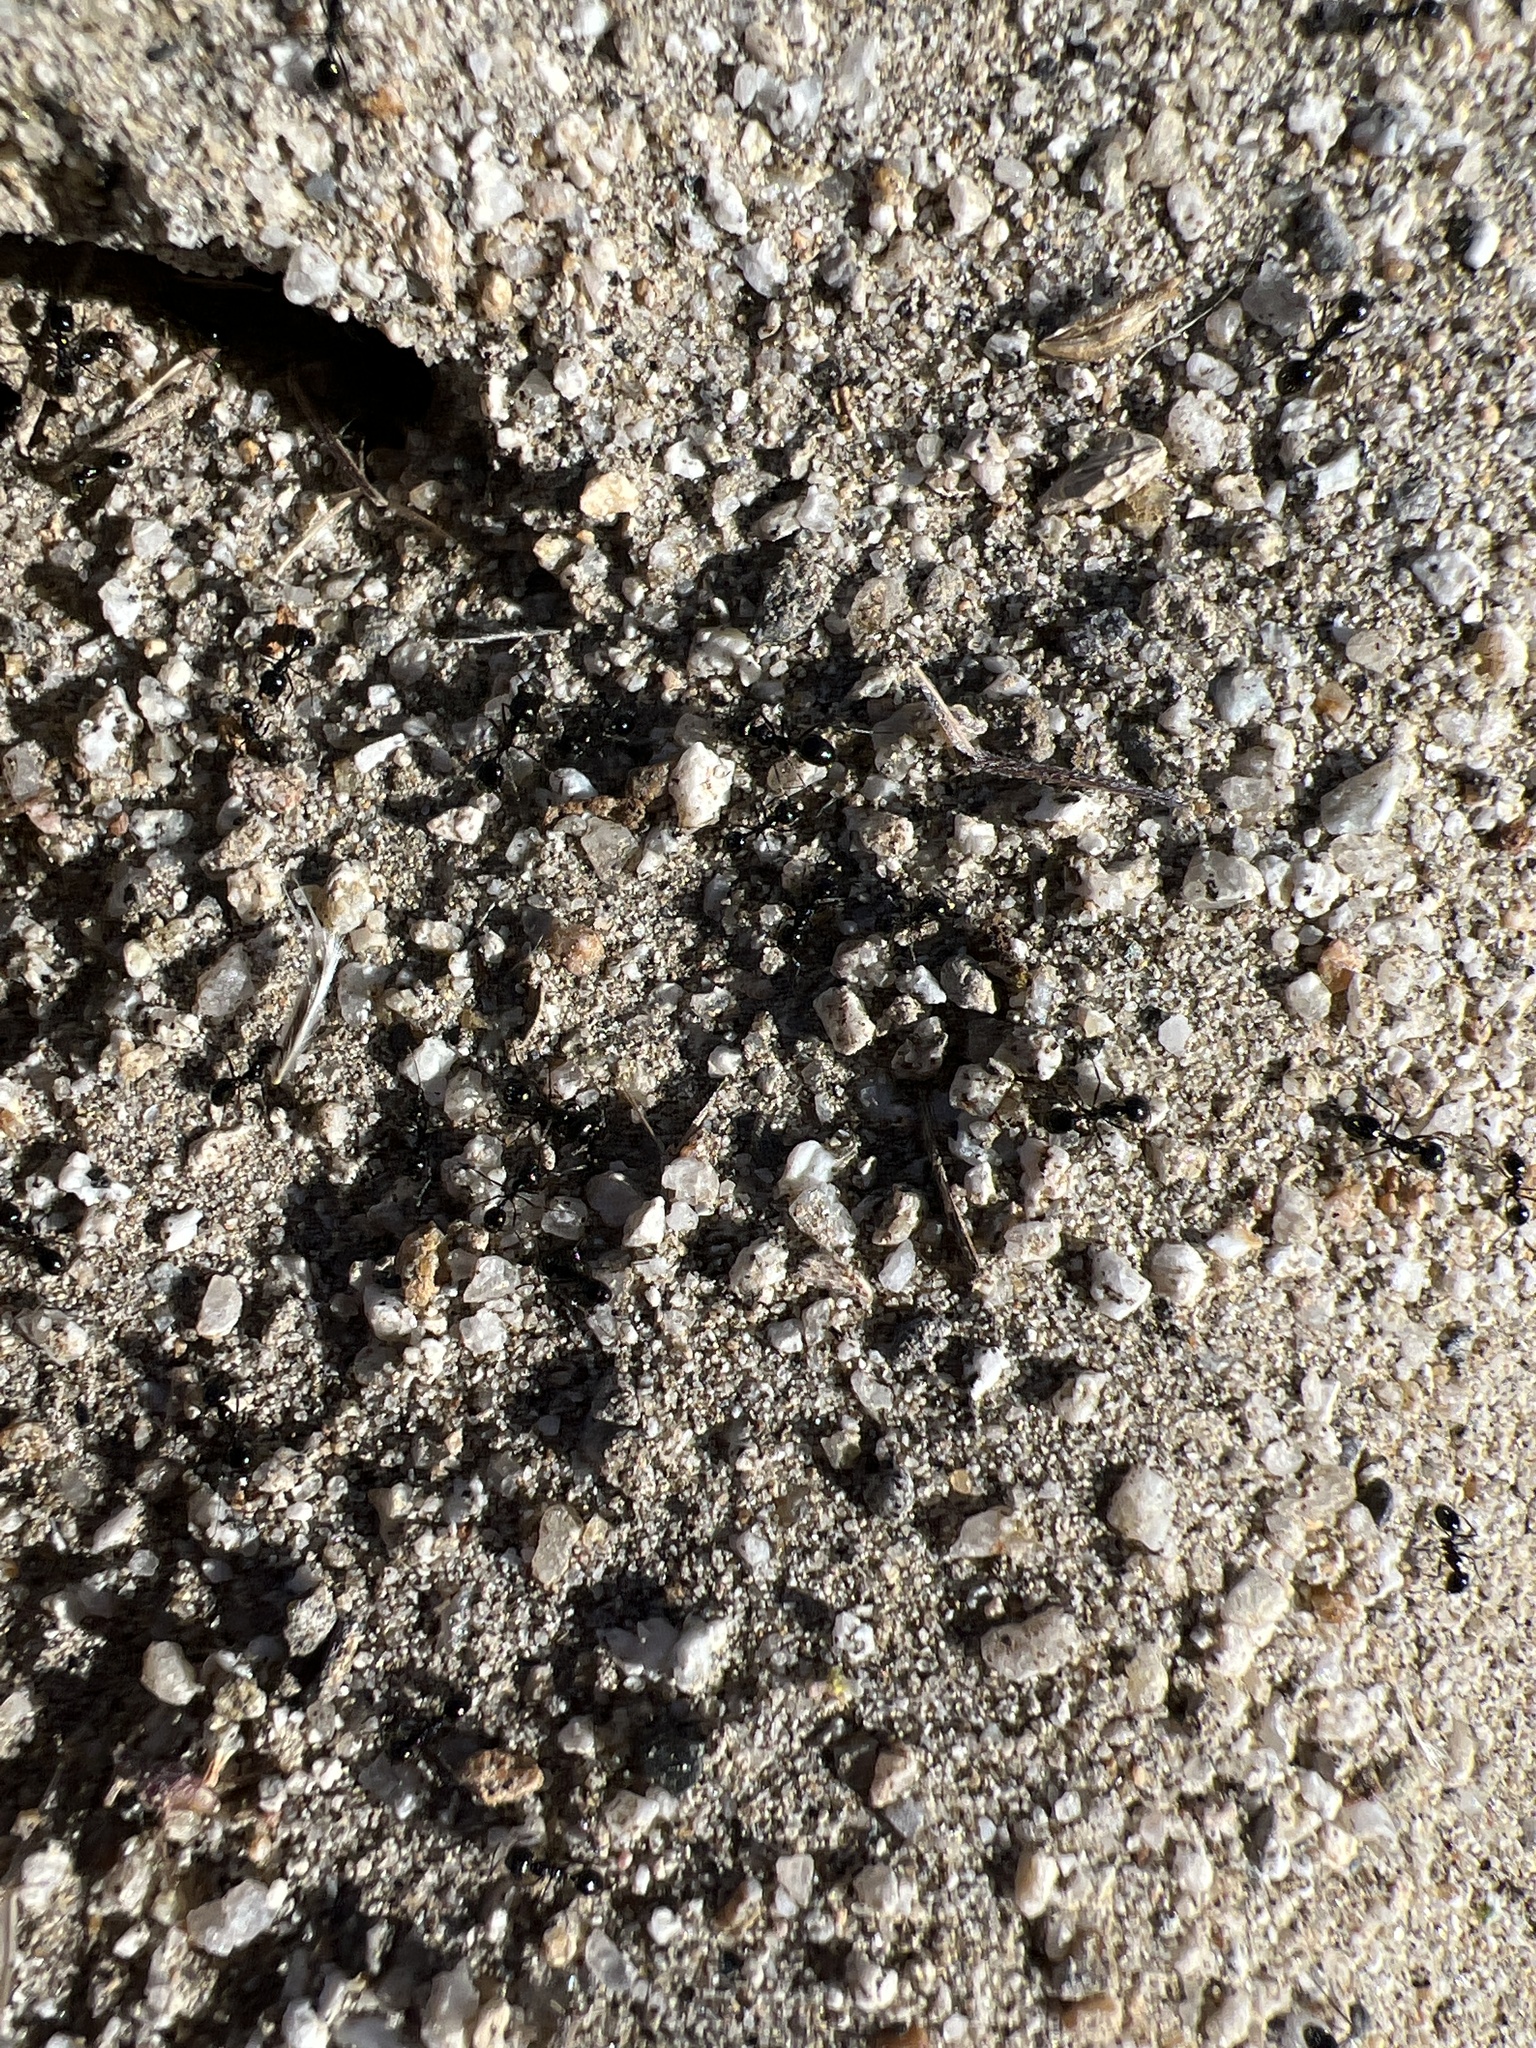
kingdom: Animalia
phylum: Arthropoda
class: Insecta
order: Hymenoptera
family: Formicidae
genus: Messor
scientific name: Messor pergandei
